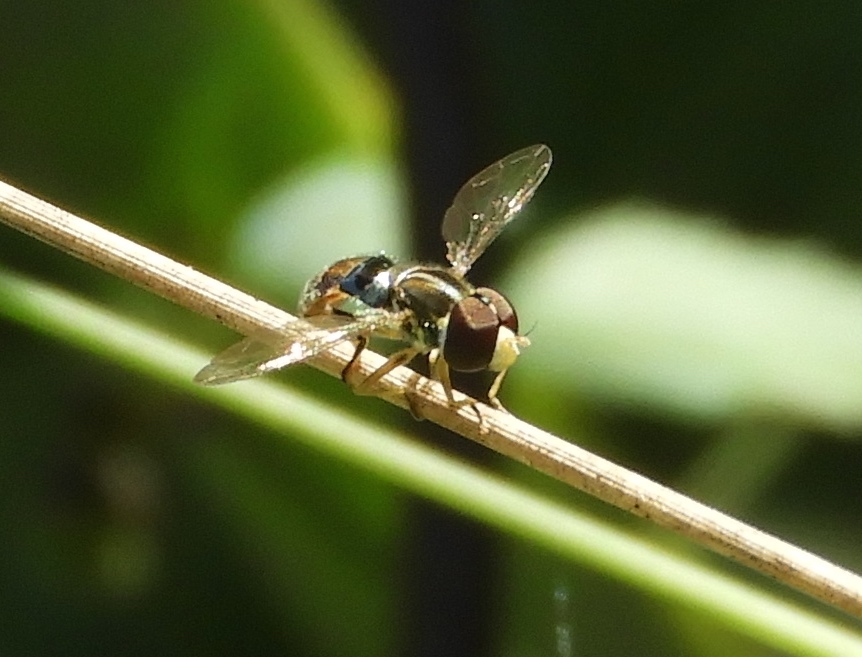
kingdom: Animalia
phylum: Arthropoda
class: Insecta
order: Diptera
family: Syrphidae
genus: Toxomerus
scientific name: Toxomerus
